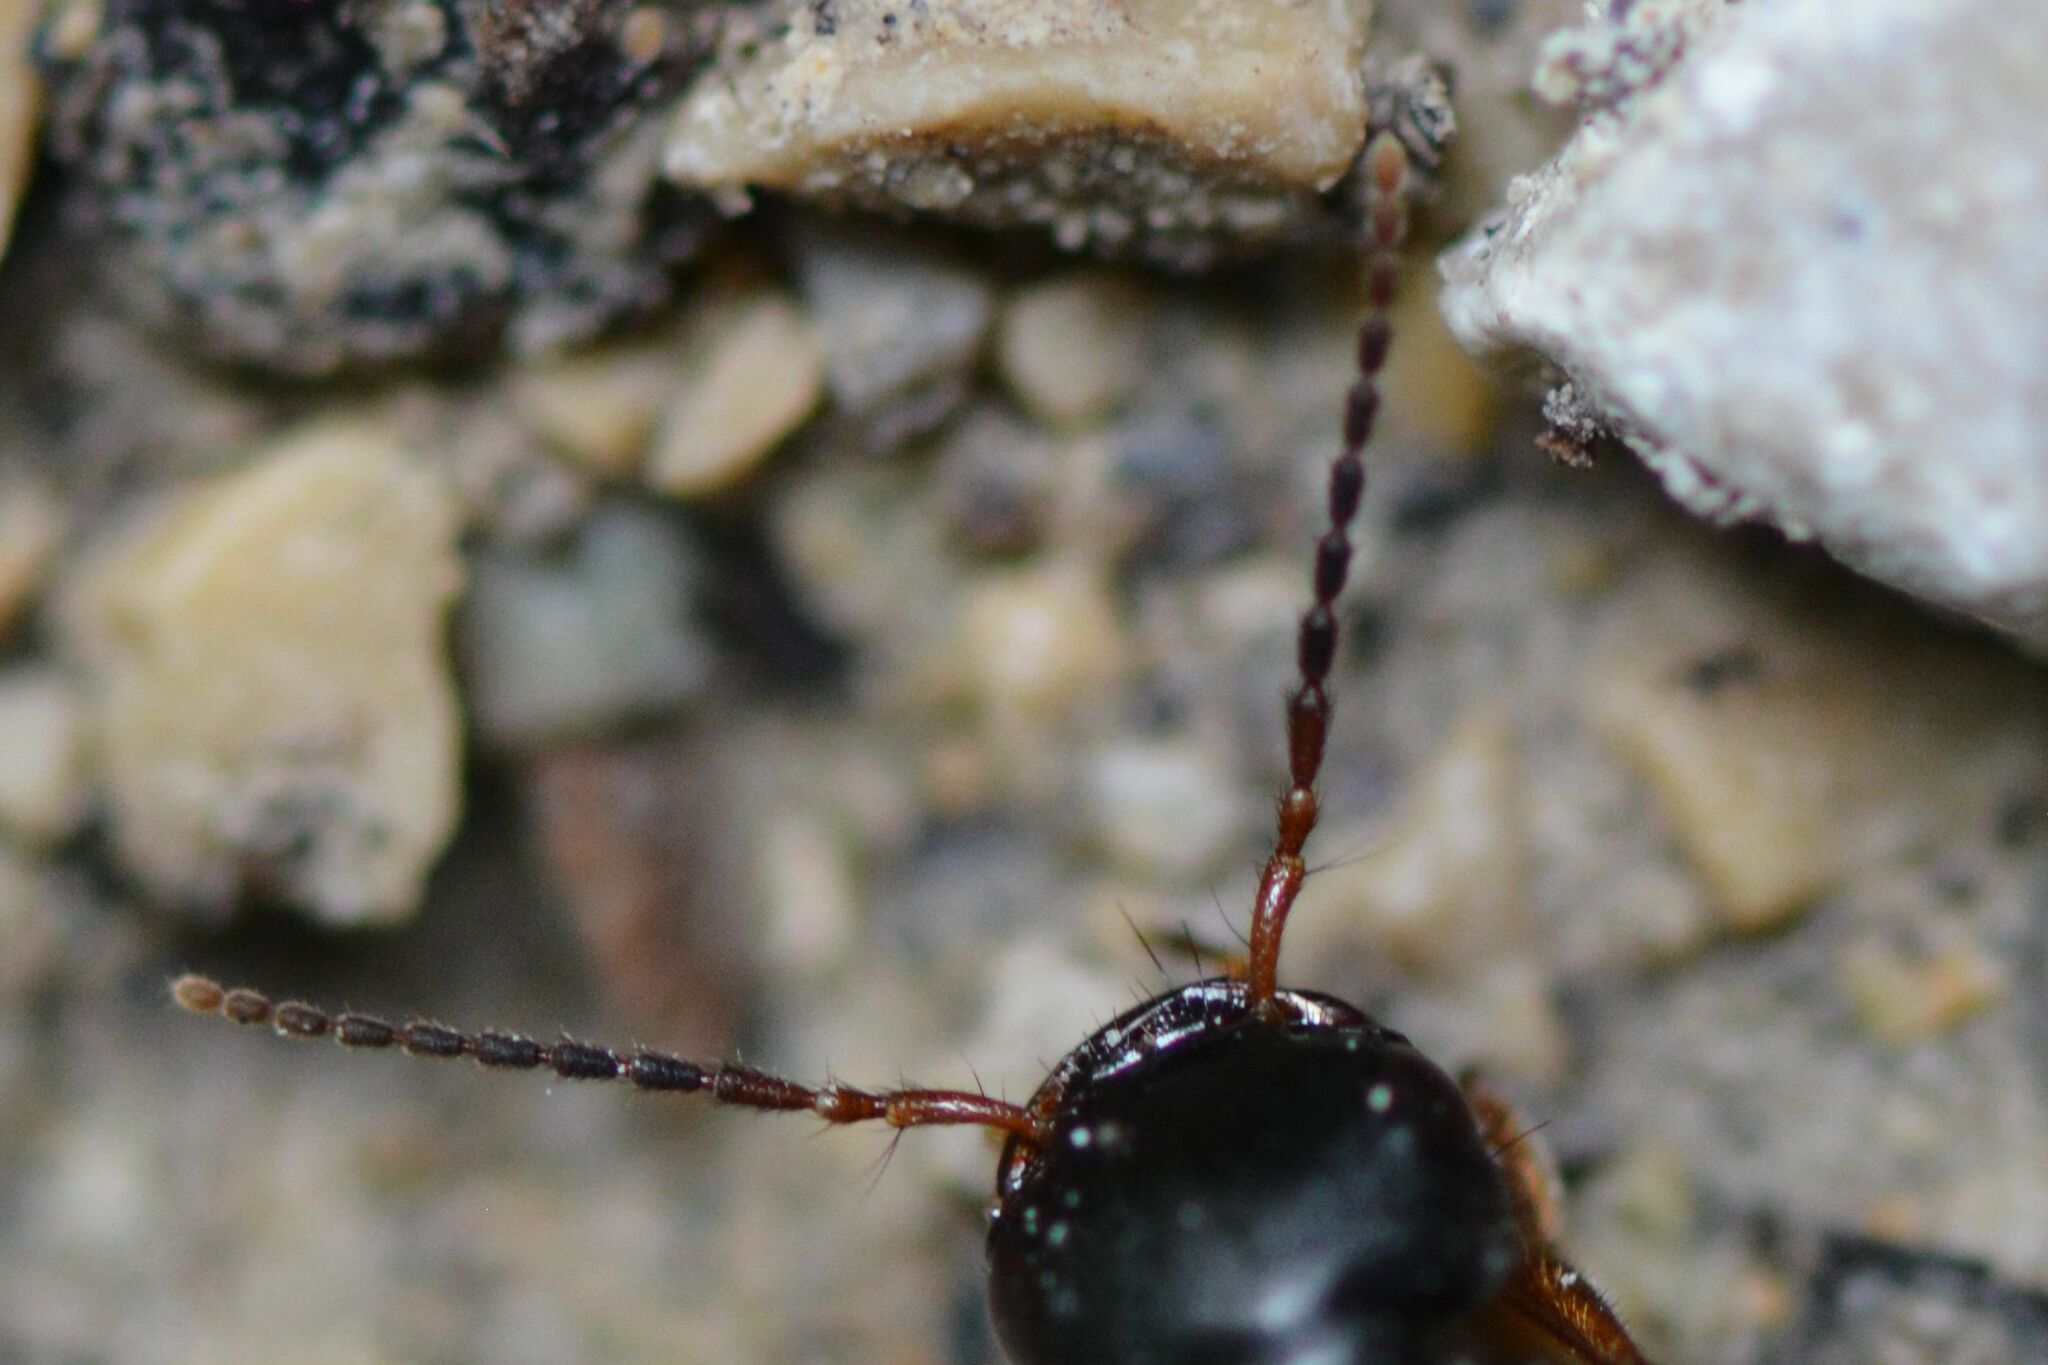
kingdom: Animalia
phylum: Arthropoda
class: Insecta
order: Coleoptera
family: Staphylinidae
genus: Tasgius
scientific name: Tasgius morsitans
